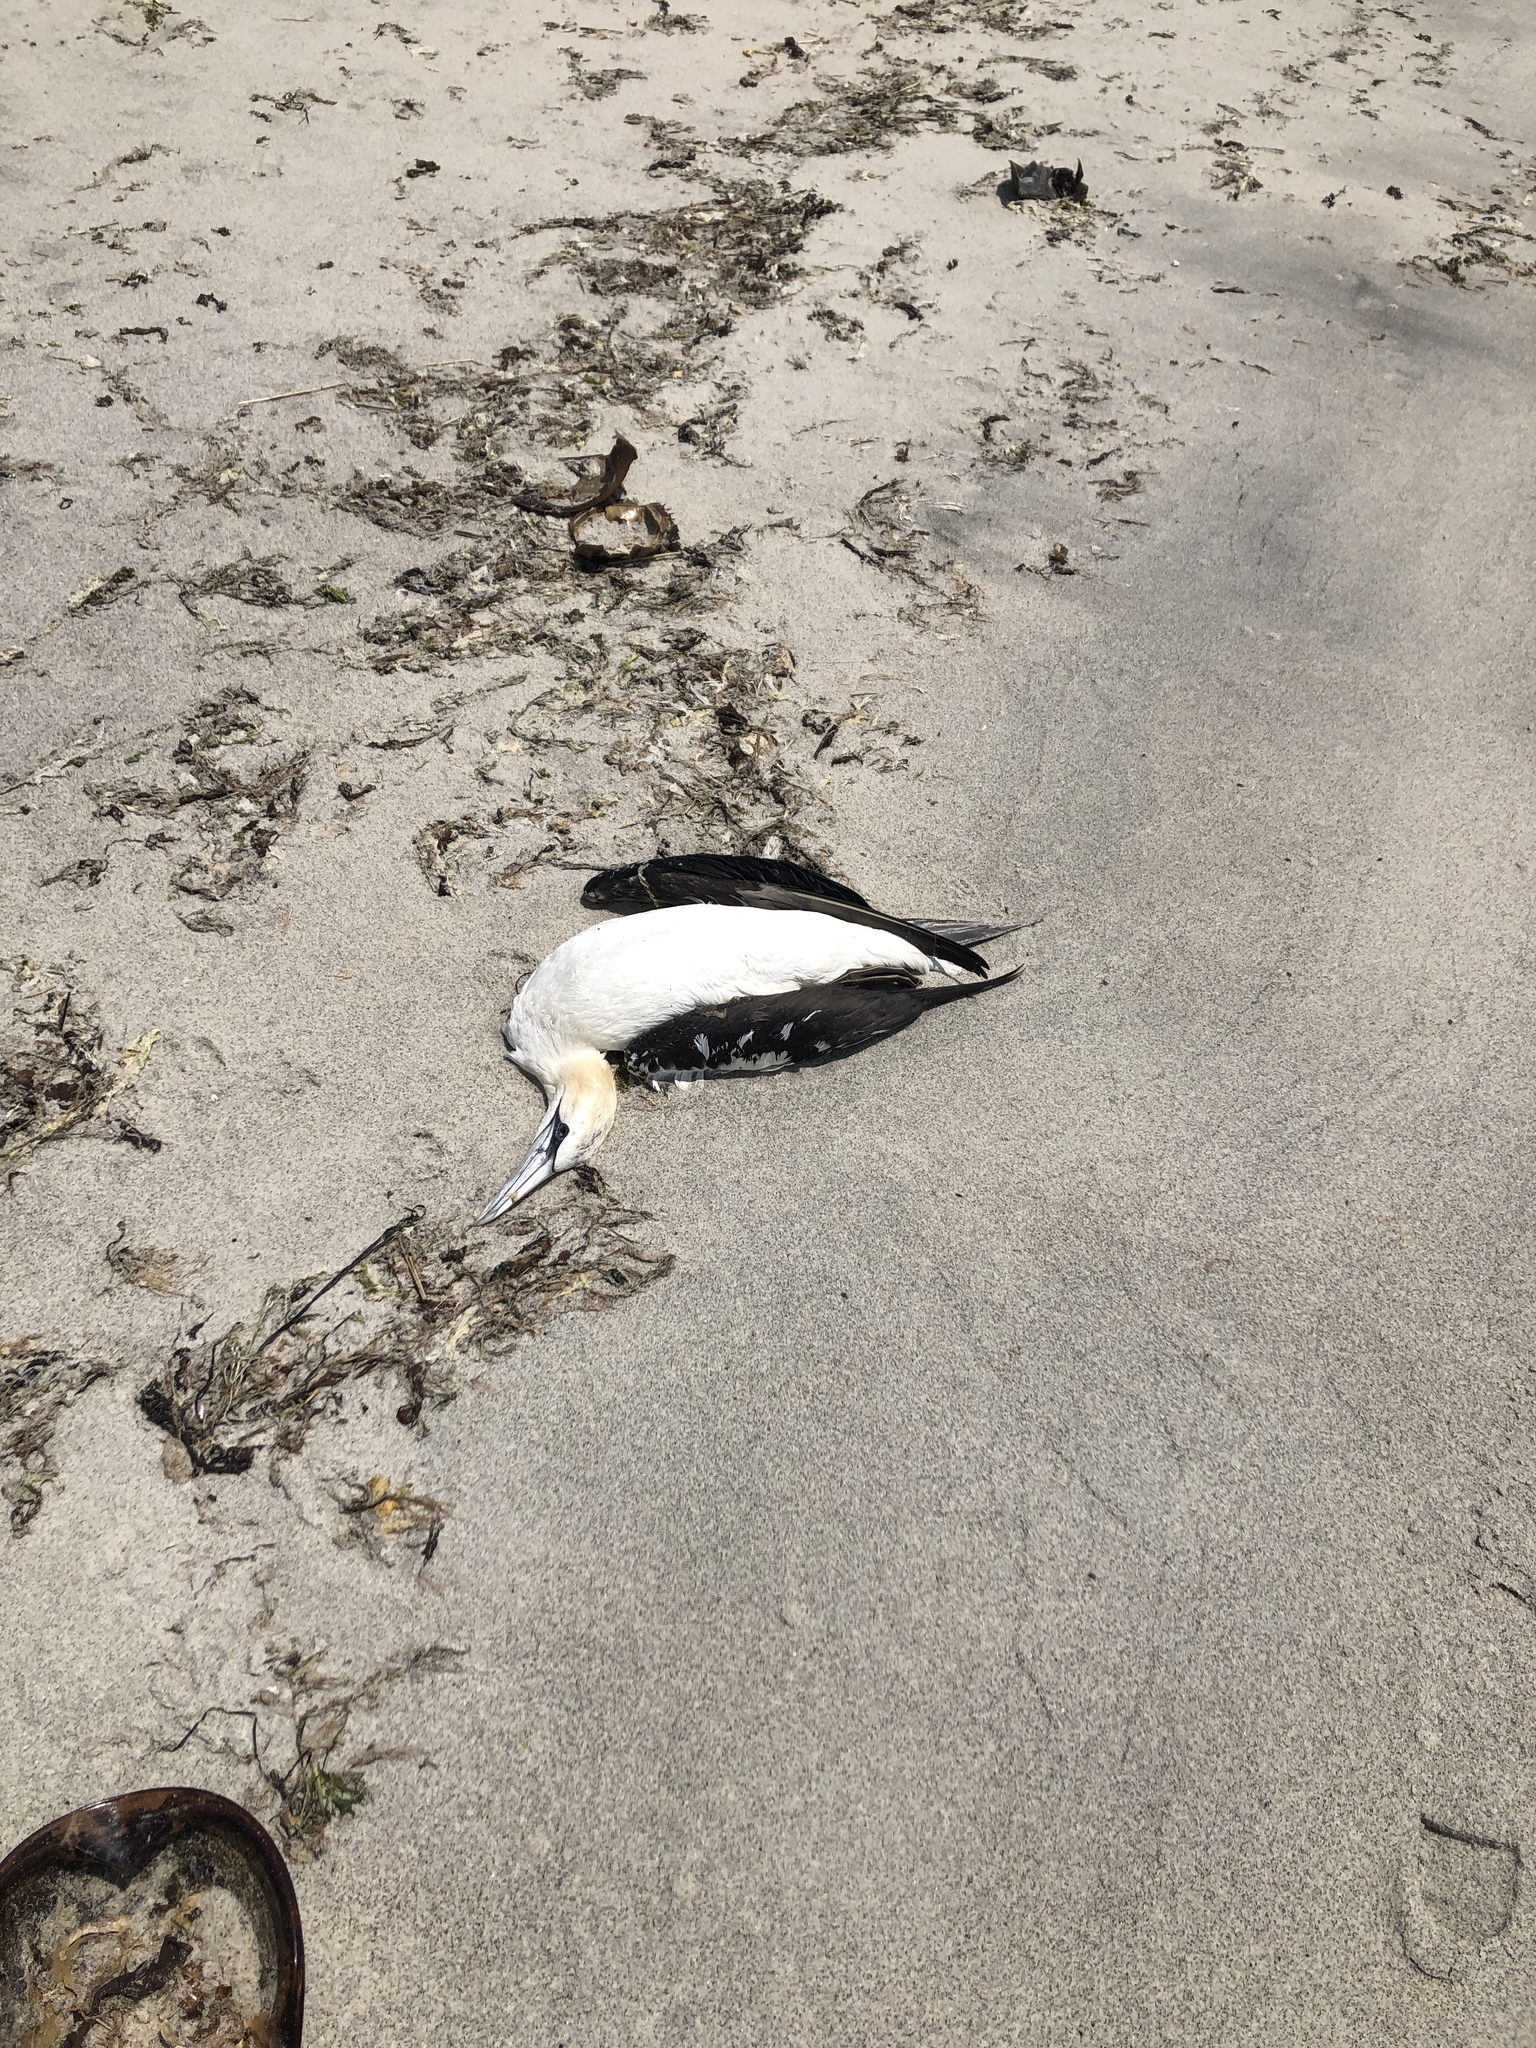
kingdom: Animalia
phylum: Chordata
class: Aves
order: Suliformes
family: Sulidae
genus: Morus
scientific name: Morus bassanus
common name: Northern gannet
